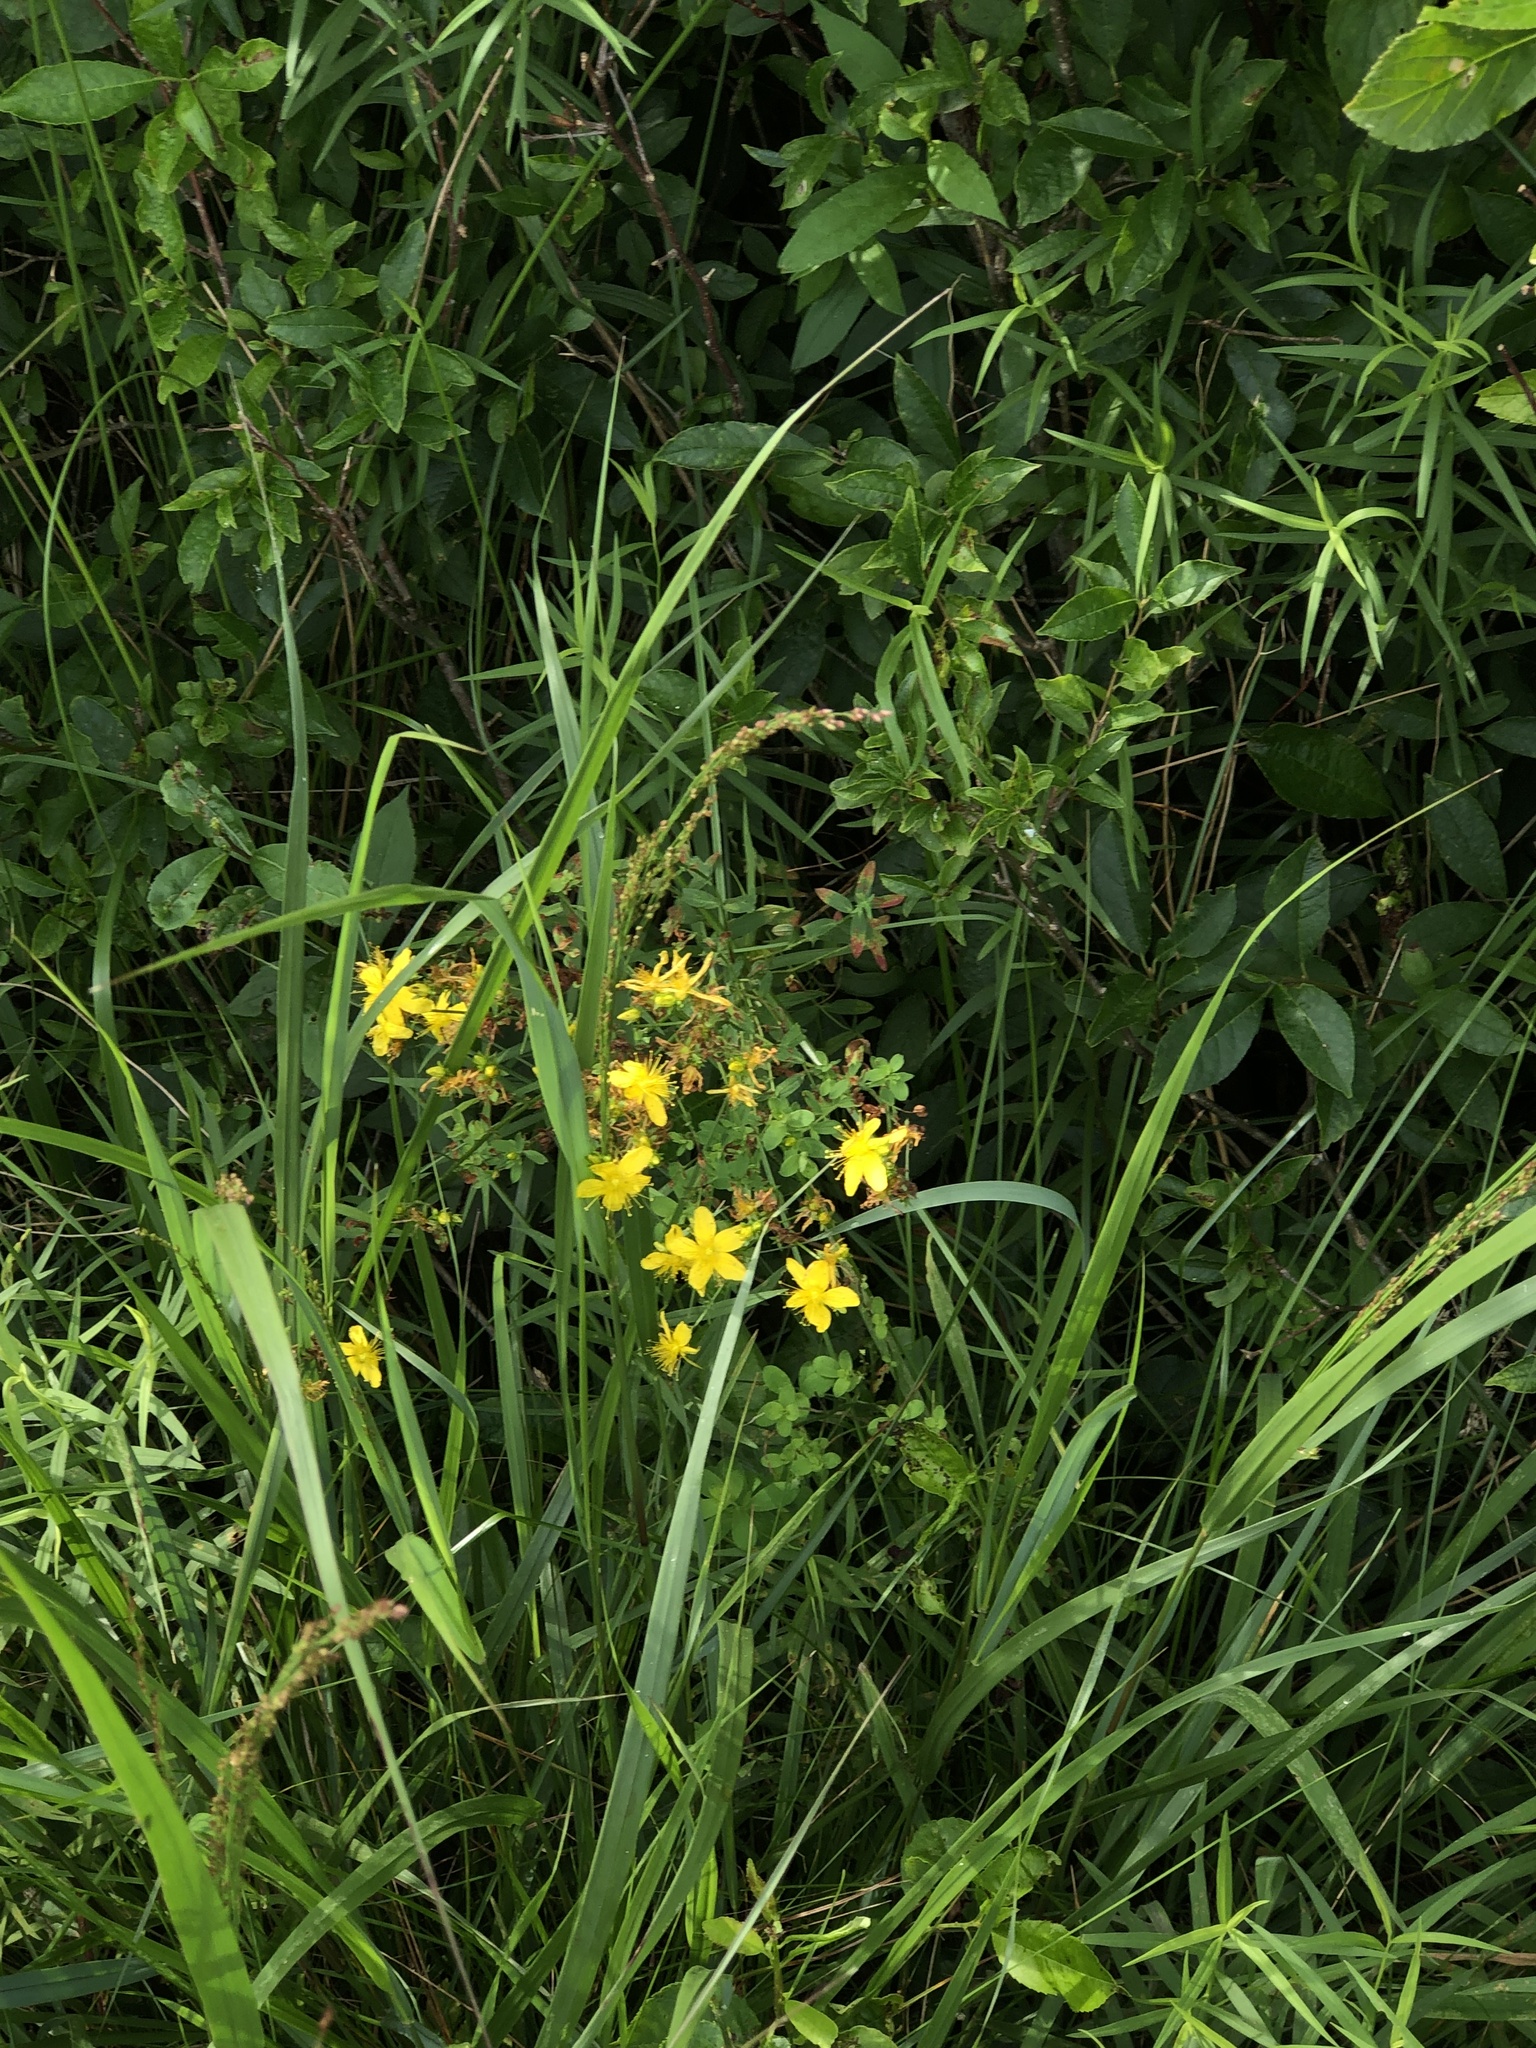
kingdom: Plantae
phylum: Tracheophyta
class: Magnoliopsida
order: Malpighiales
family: Hypericaceae
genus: Hypericum
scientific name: Hypericum perforatum
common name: Common st. johnswort
